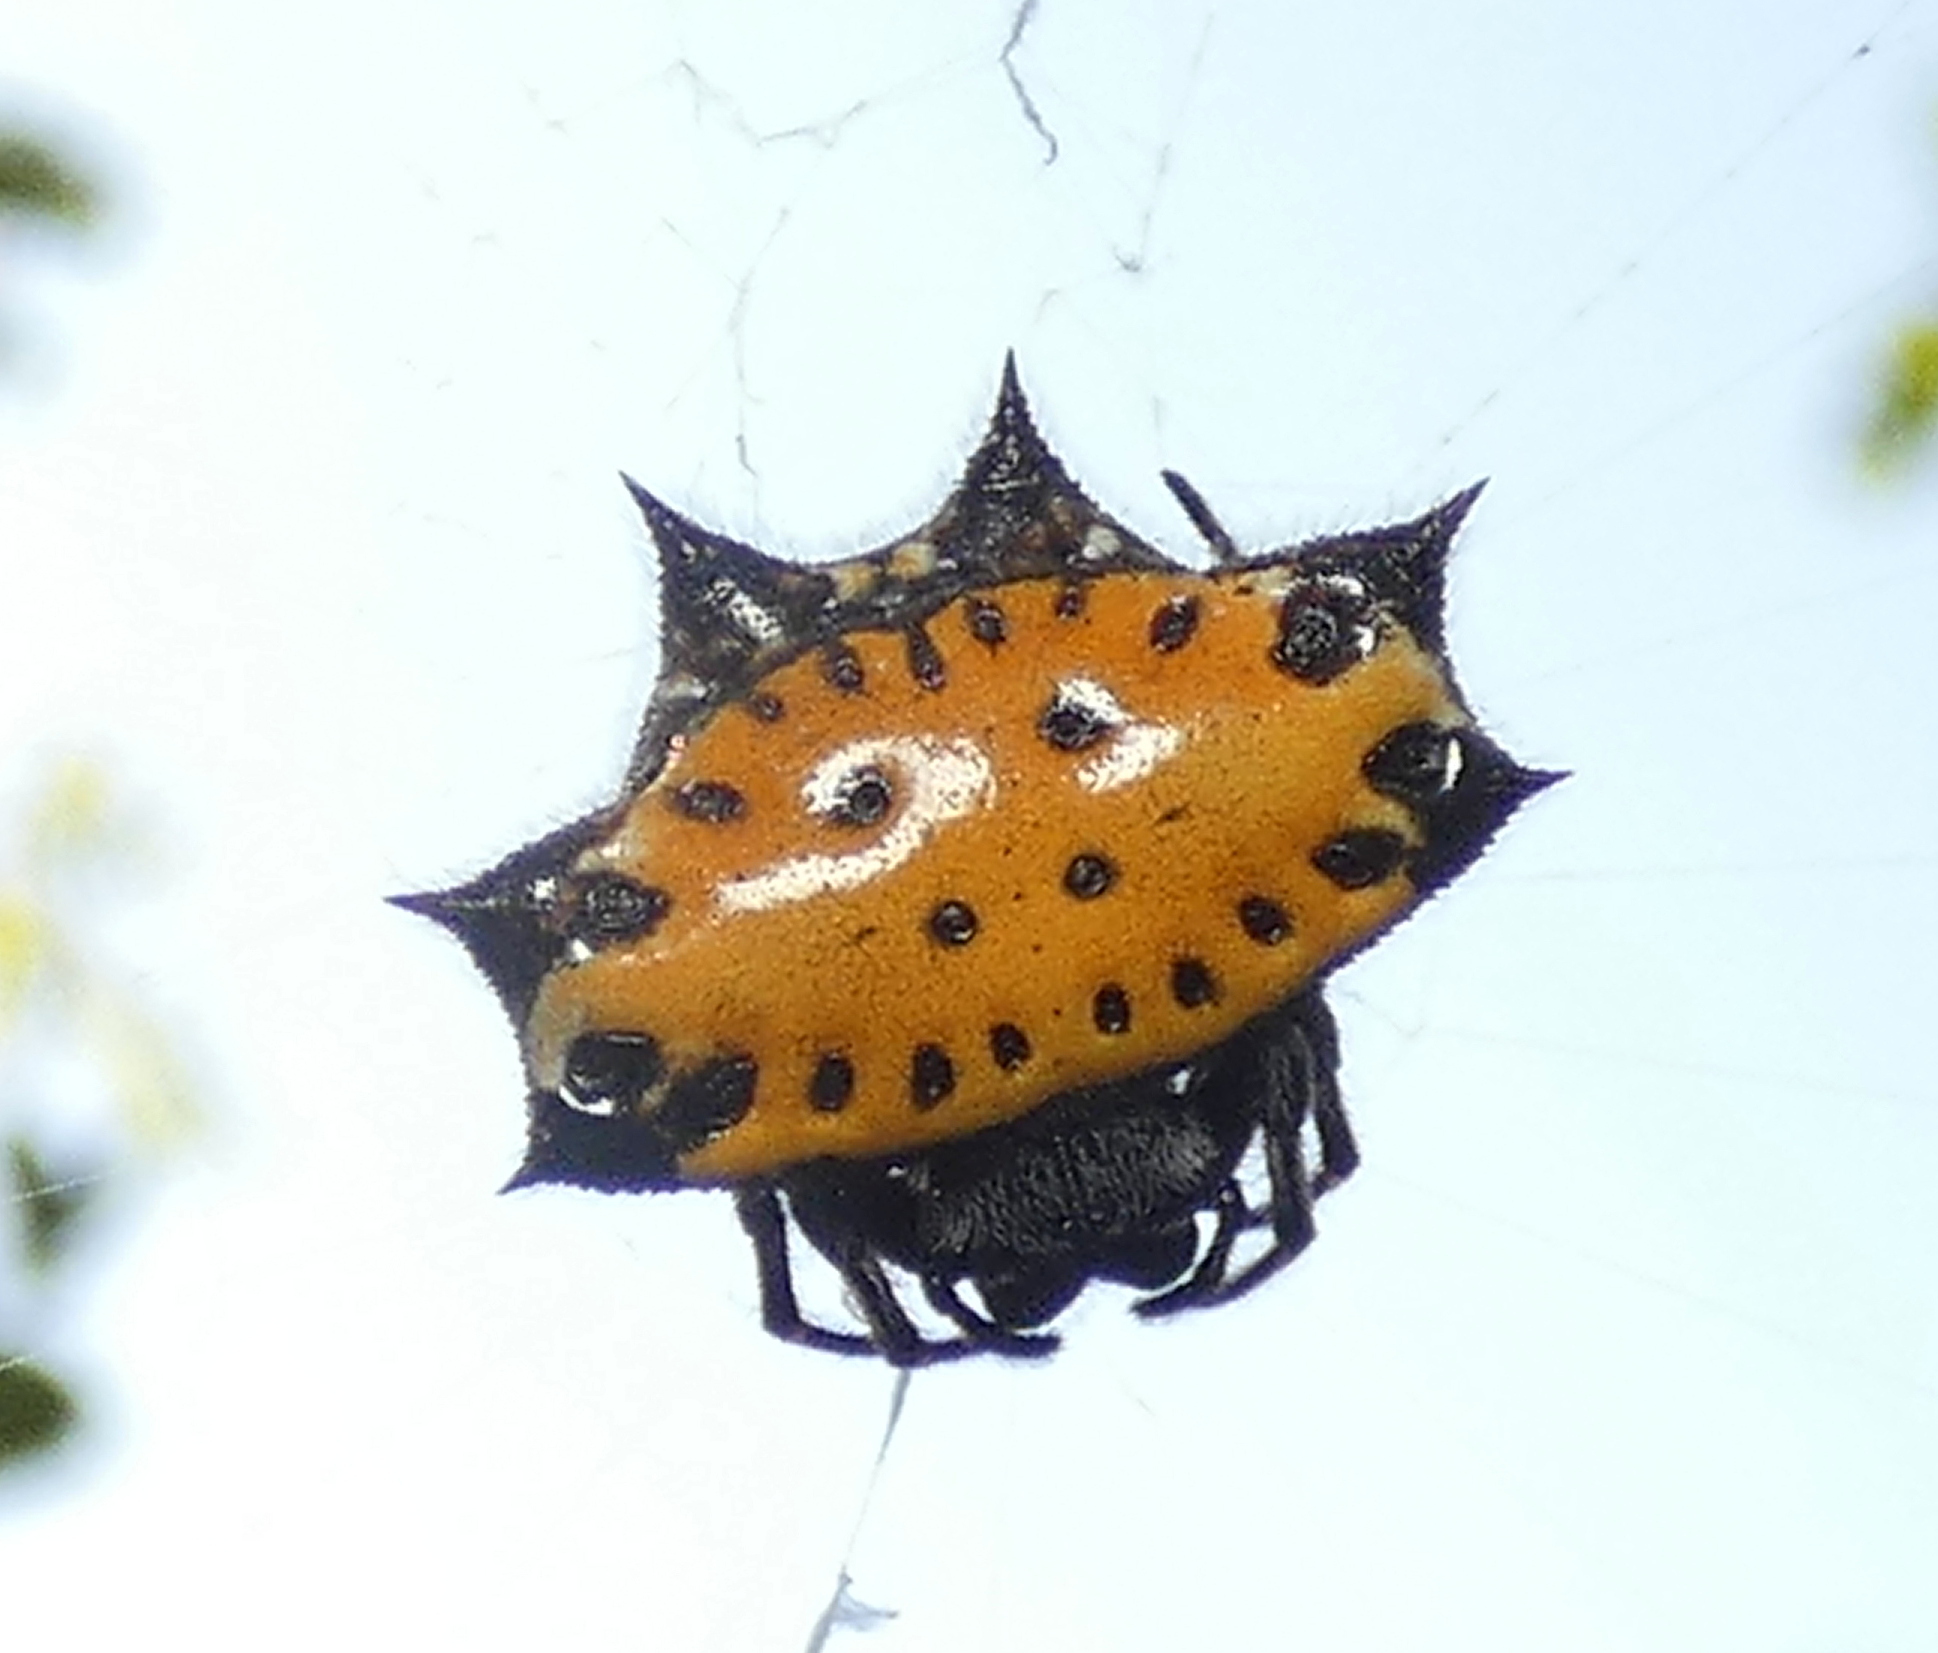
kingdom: Animalia
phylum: Arthropoda
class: Arachnida
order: Araneae
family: Araneidae
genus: Gasteracantha
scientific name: Gasteracantha cancriformis
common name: Orb weavers
